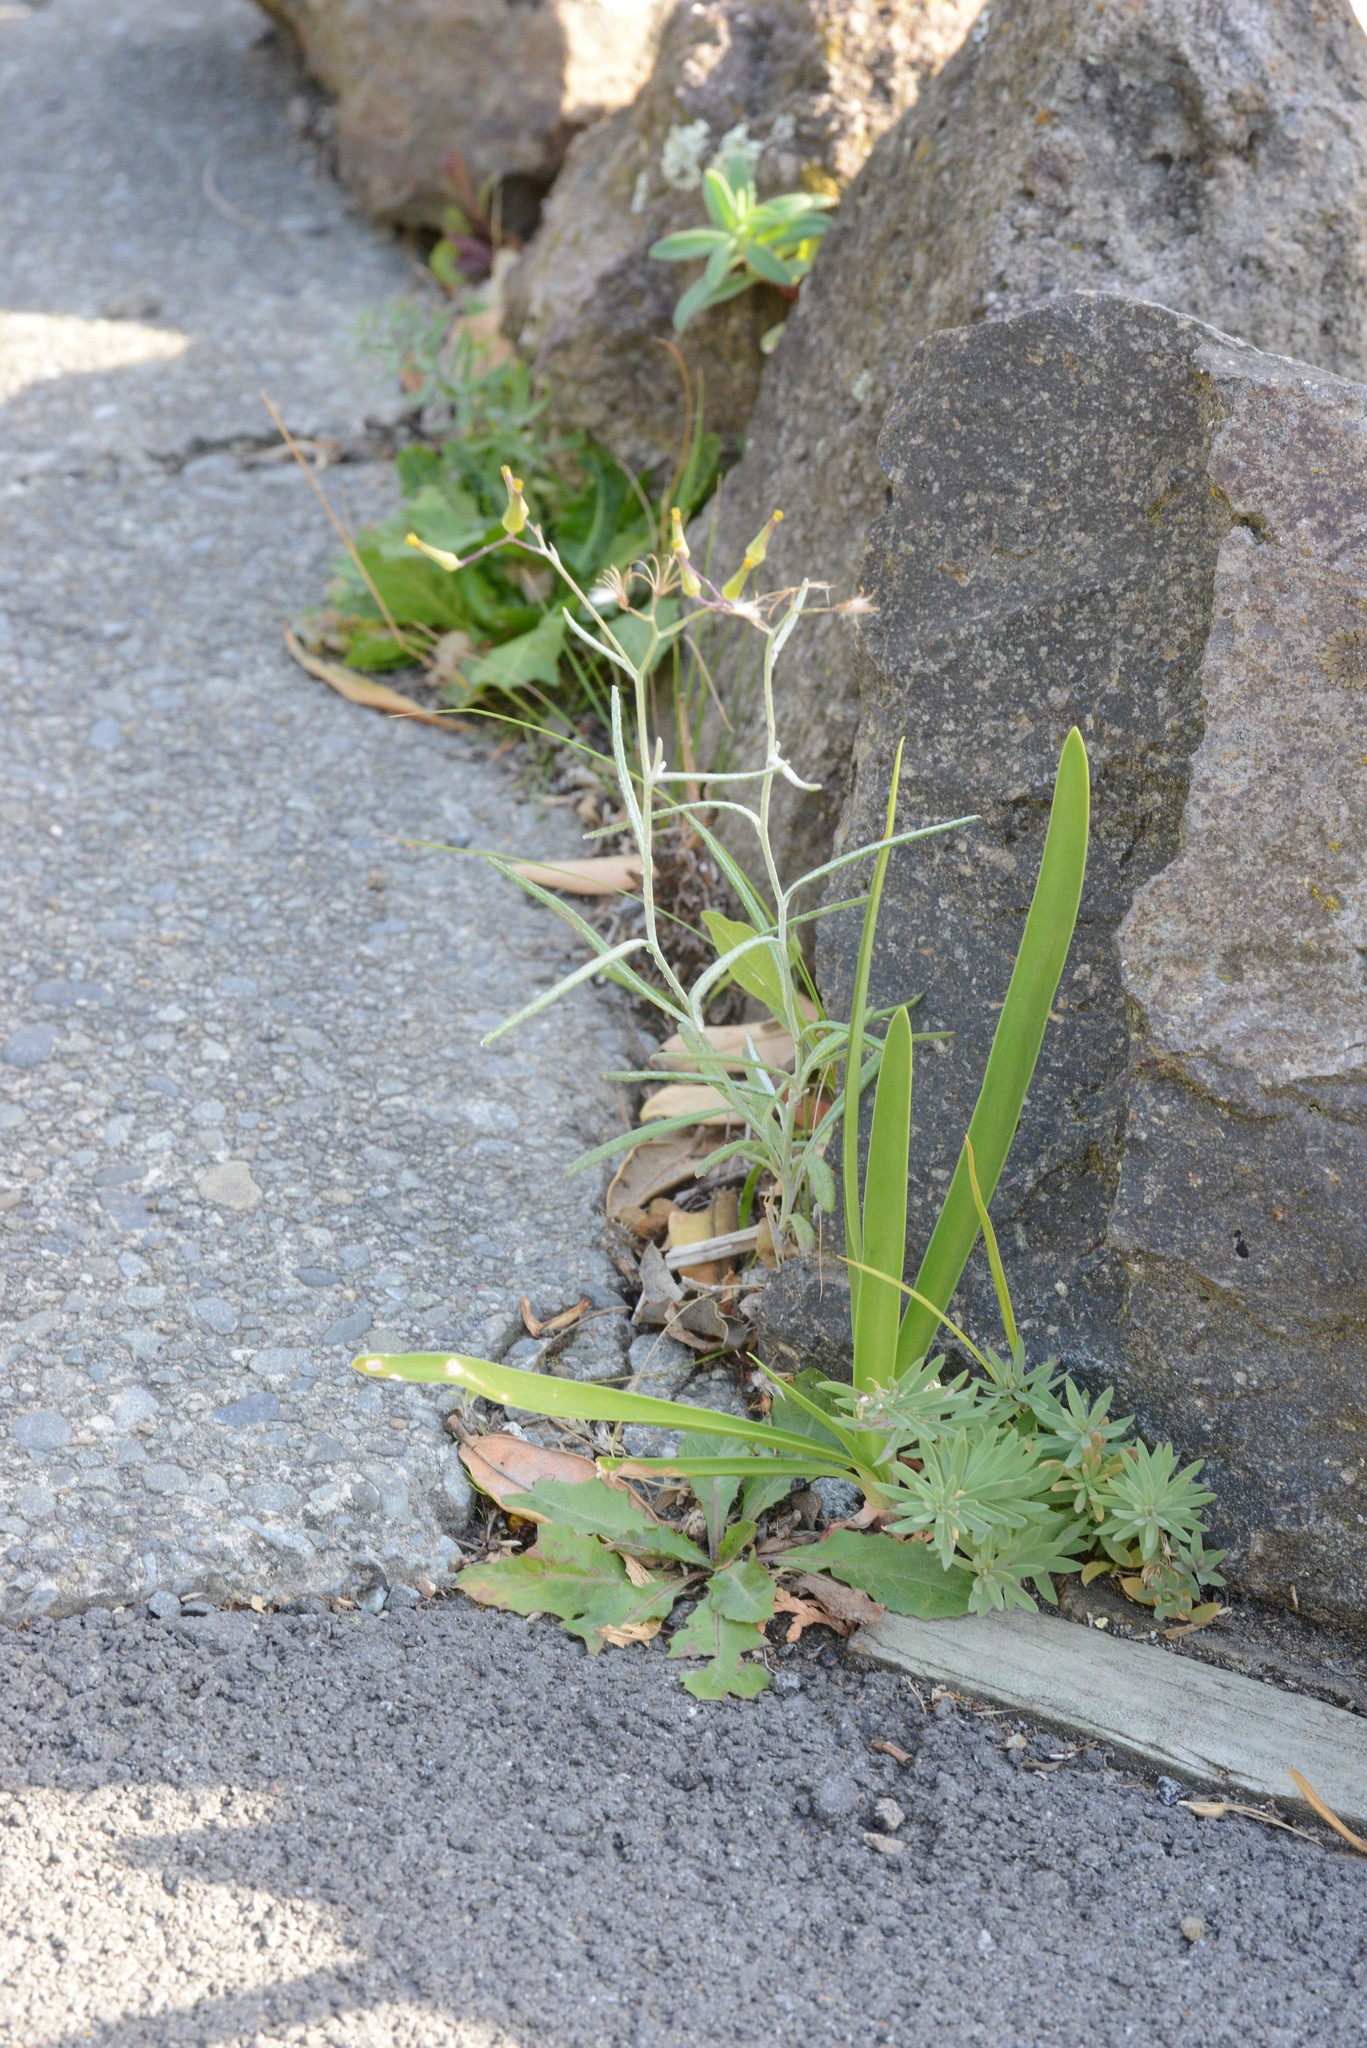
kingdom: Plantae
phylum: Tracheophyta
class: Magnoliopsida
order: Asterales
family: Asteraceae
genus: Senecio
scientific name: Senecio quadridentatus
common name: Cotton fireweed
